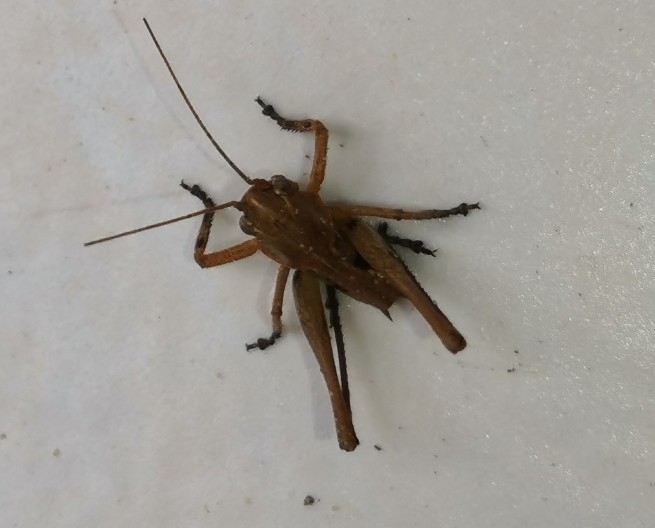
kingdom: Animalia
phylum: Arthropoda
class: Insecta
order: Orthoptera
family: Tettigoniidae
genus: Decticus
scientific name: Decticus albifrons
